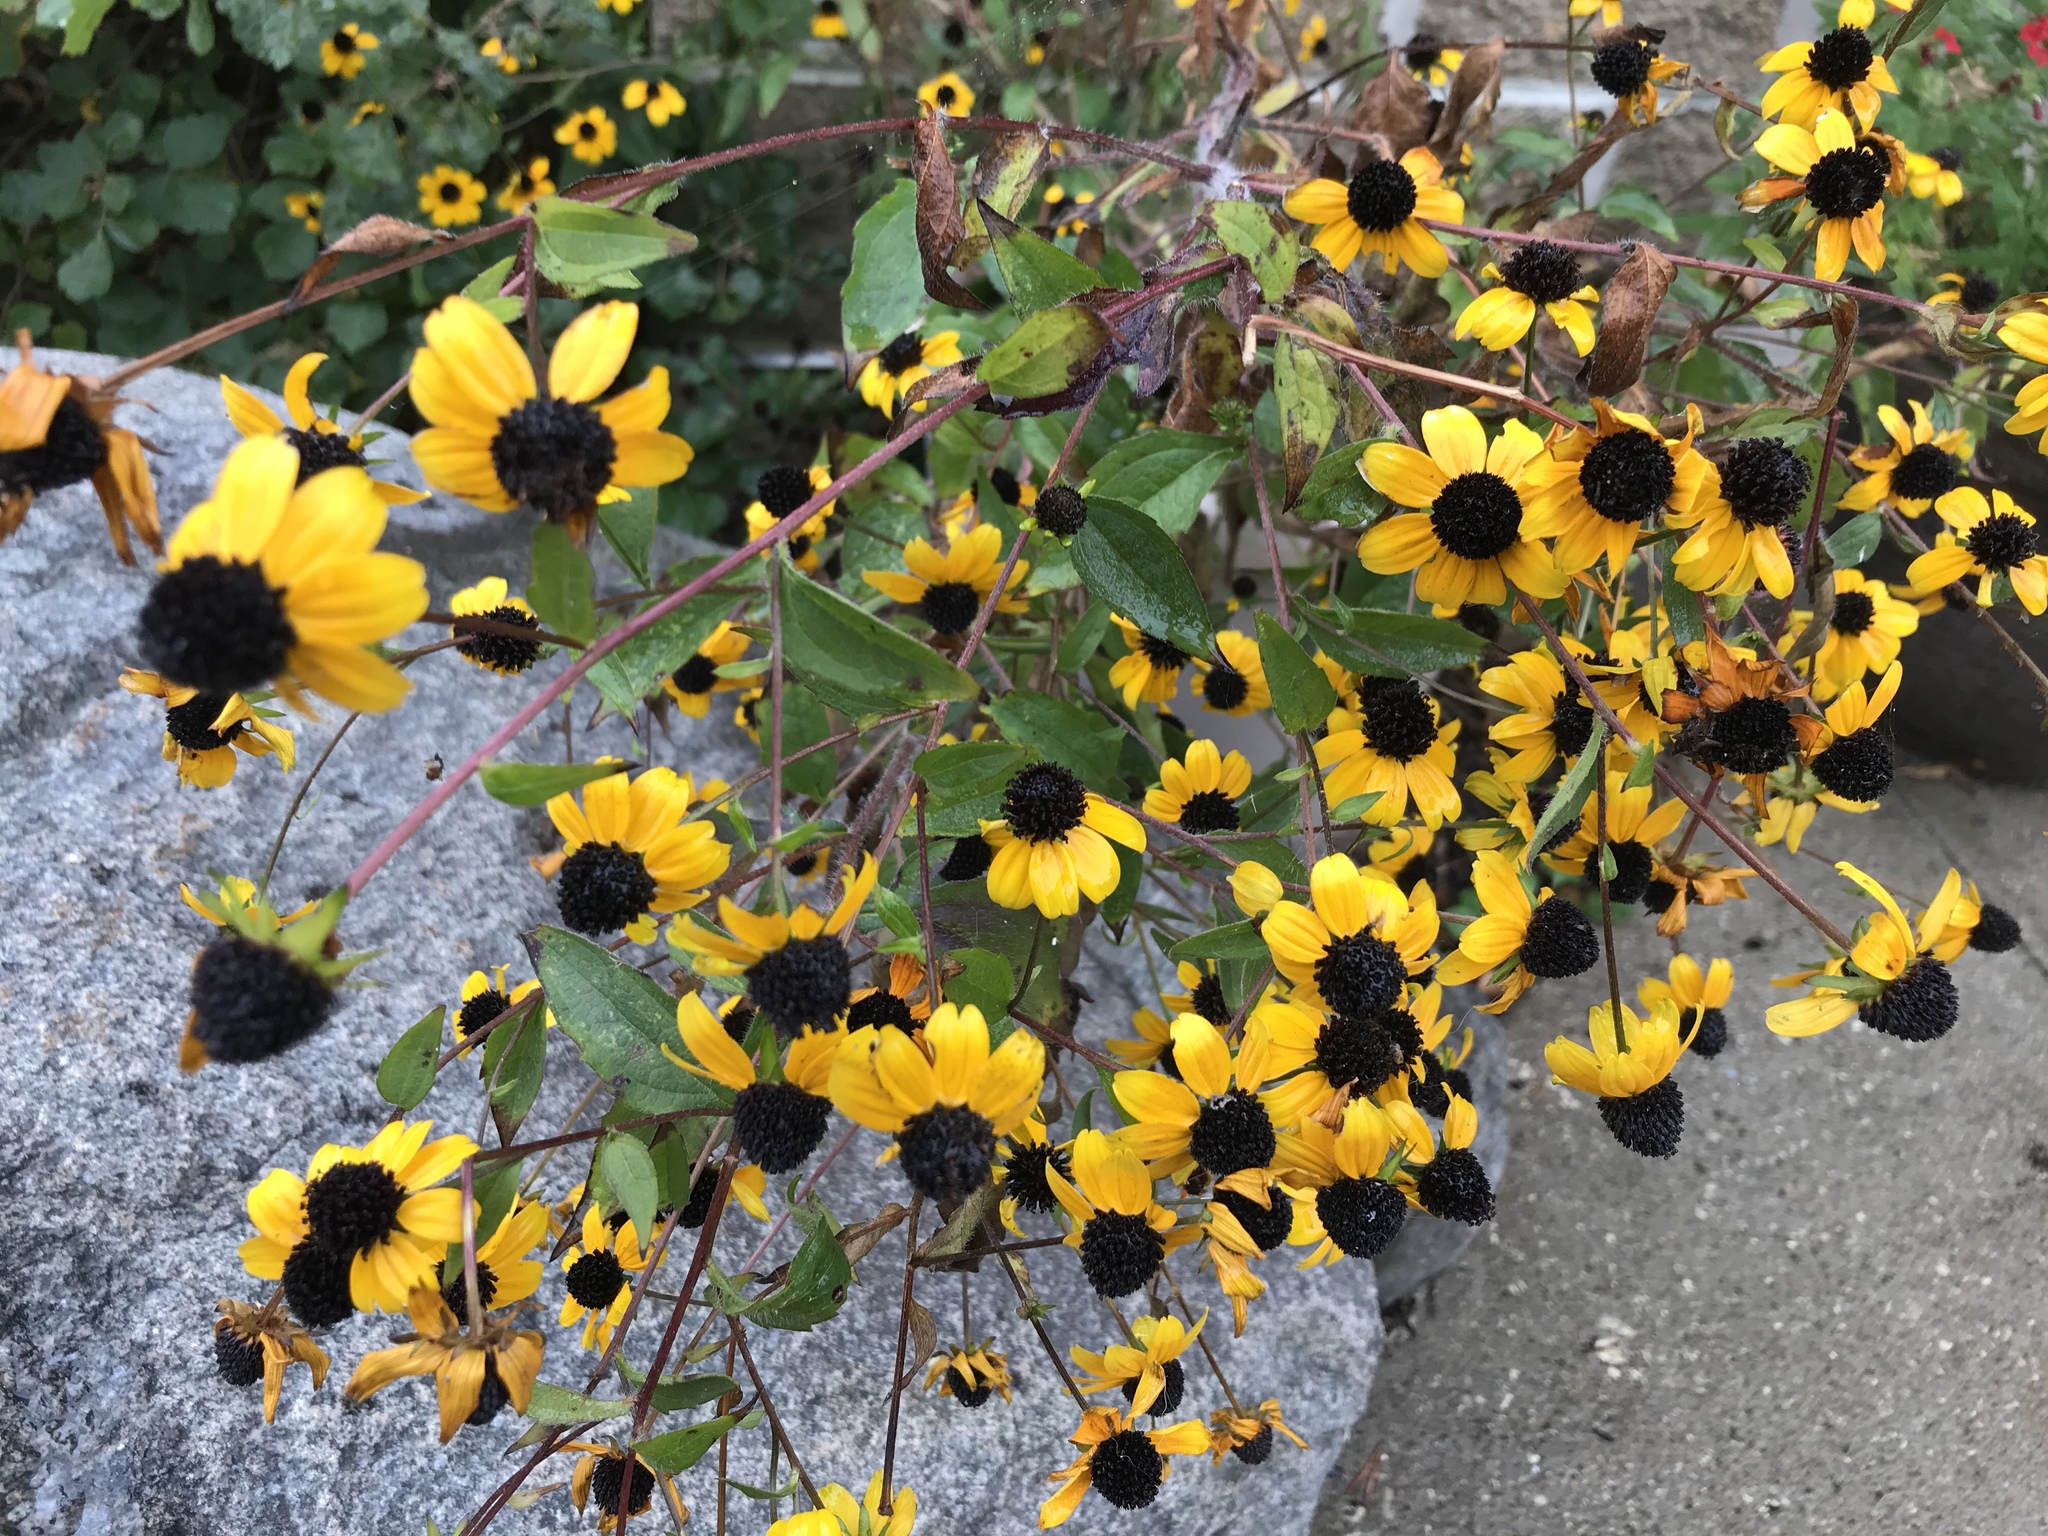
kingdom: Plantae
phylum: Tracheophyta
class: Magnoliopsida
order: Asterales
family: Asteraceae
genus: Rudbeckia
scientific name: Rudbeckia triloba
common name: Thin-leaved coneflower
